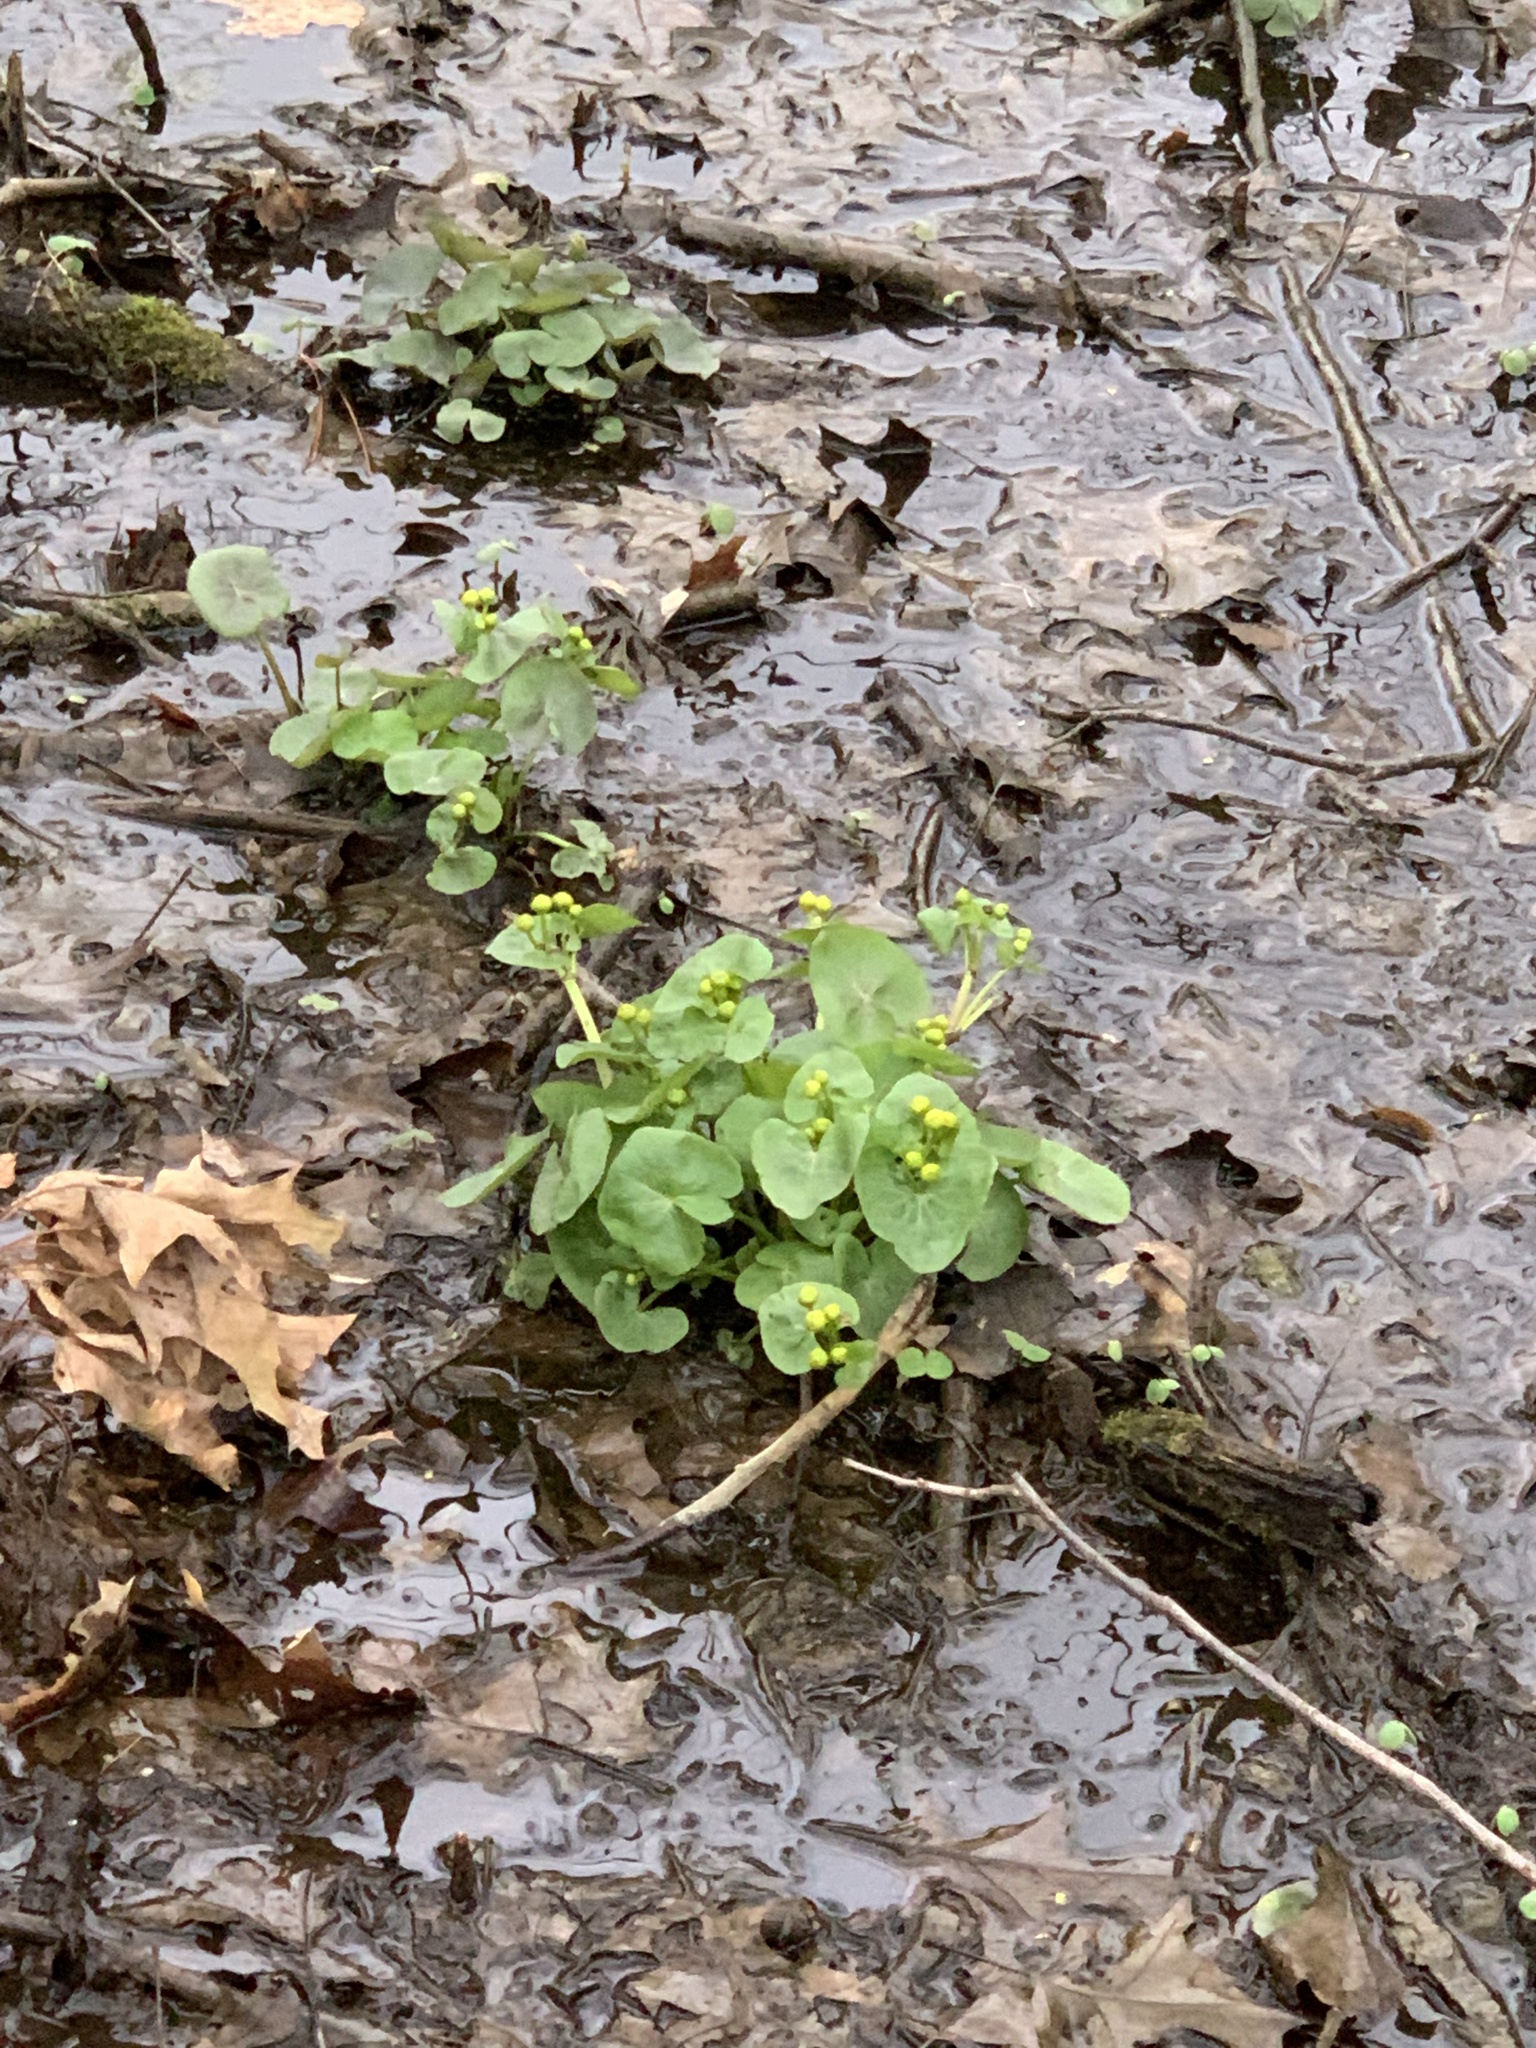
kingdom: Plantae
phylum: Tracheophyta
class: Magnoliopsida
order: Ranunculales
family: Ranunculaceae
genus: Caltha
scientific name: Caltha palustris
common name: Marsh marigold
